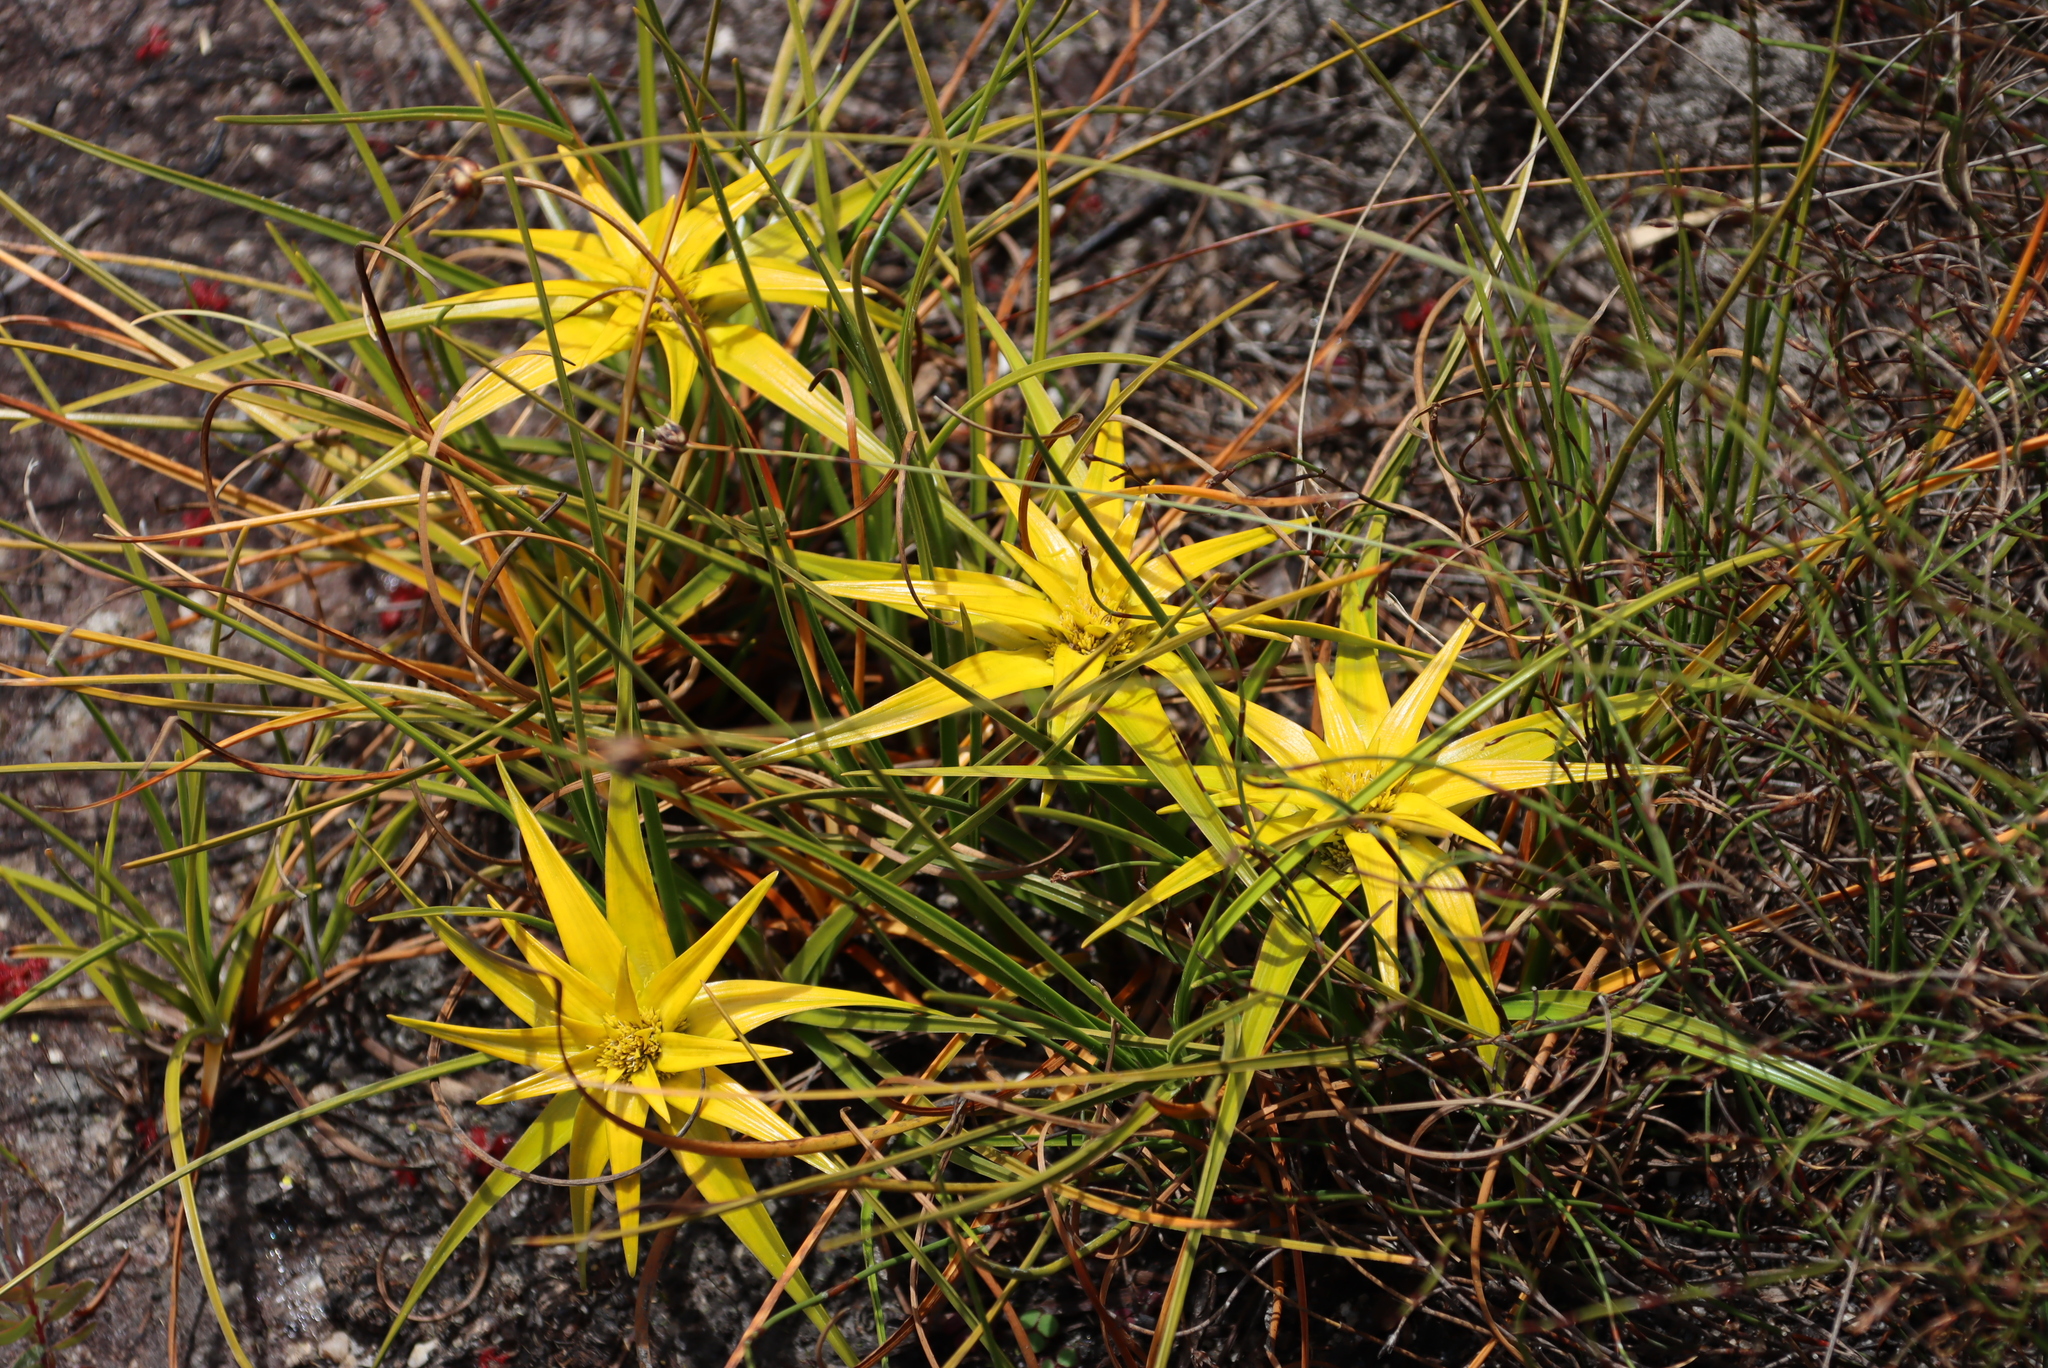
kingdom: Plantae
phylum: Tracheophyta
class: Liliopsida
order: Poales
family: Cyperaceae
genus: Ficinia
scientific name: Ficinia radiata
